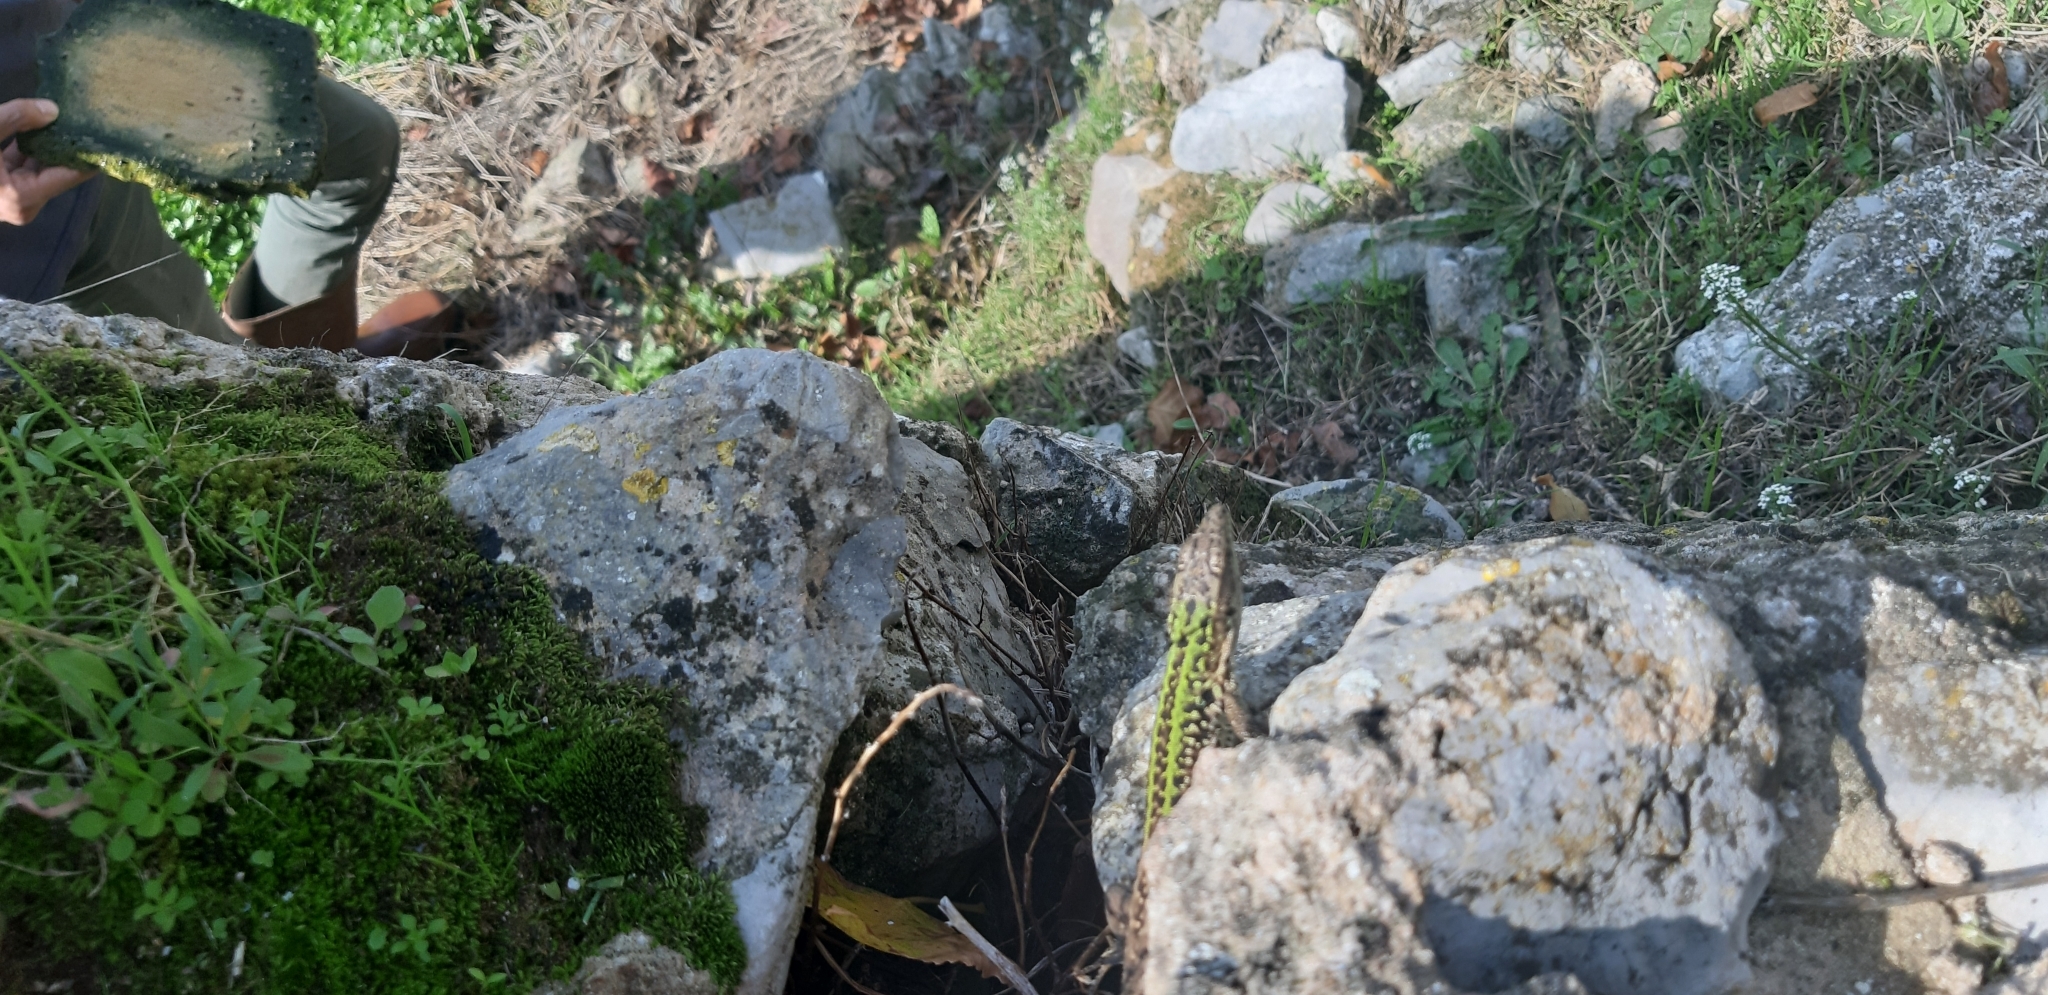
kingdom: Animalia
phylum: Chordata
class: Squamata
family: Lacertidae
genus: Podarcis
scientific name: Podarcis siculus
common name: Italian wall lizard
